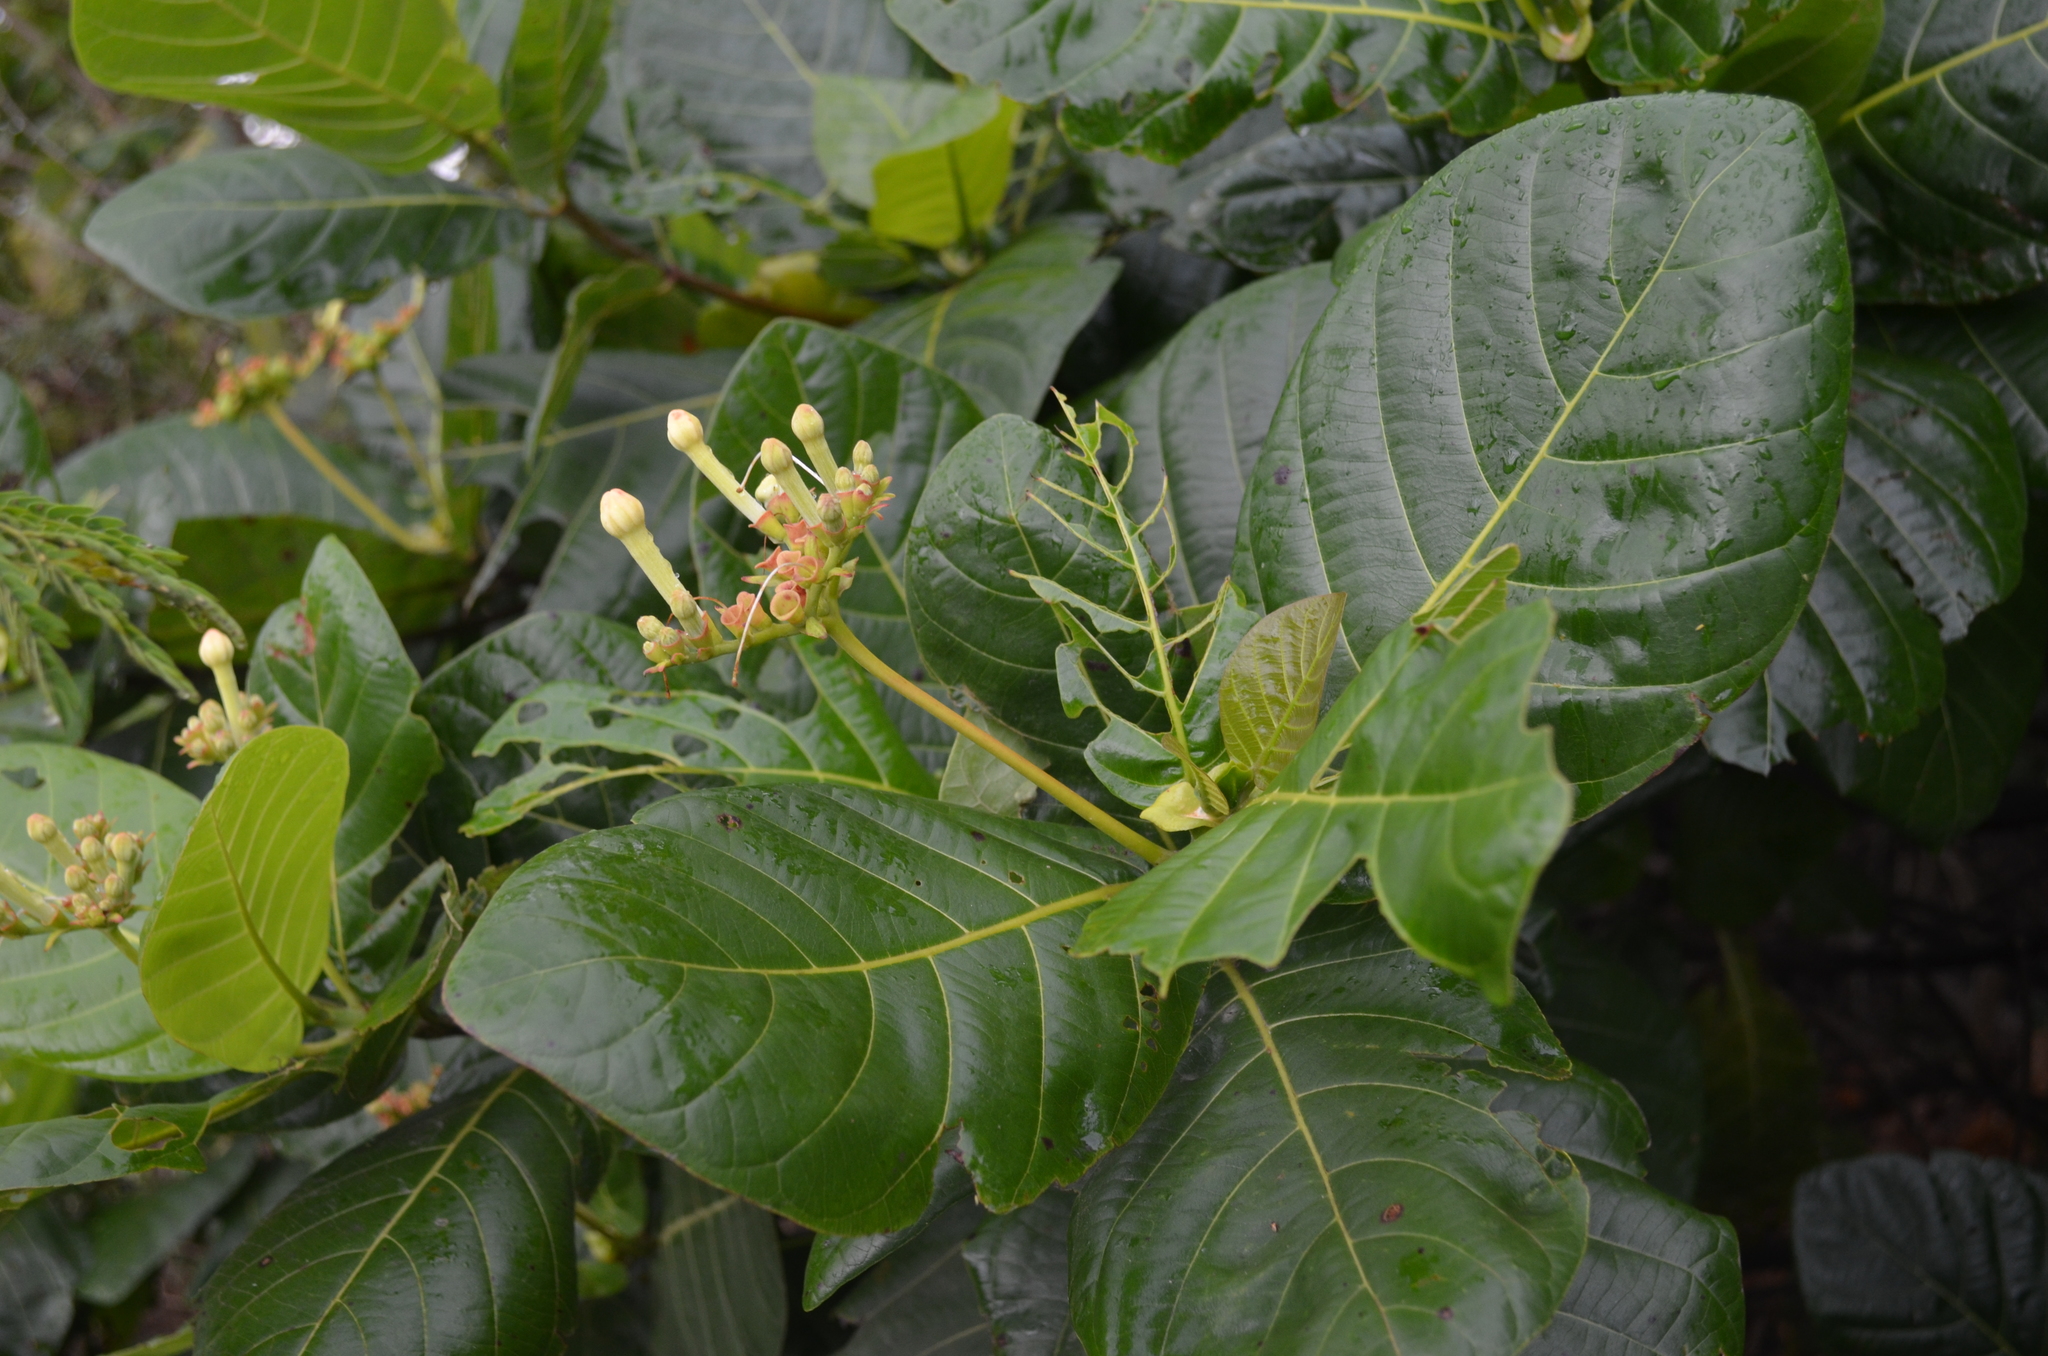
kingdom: Plantae
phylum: Tracheophyta
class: Magnoliopsida
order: Gentianales
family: Rubiaceae
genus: Guettarda
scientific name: Guettarda speciosa
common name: Sea randa
